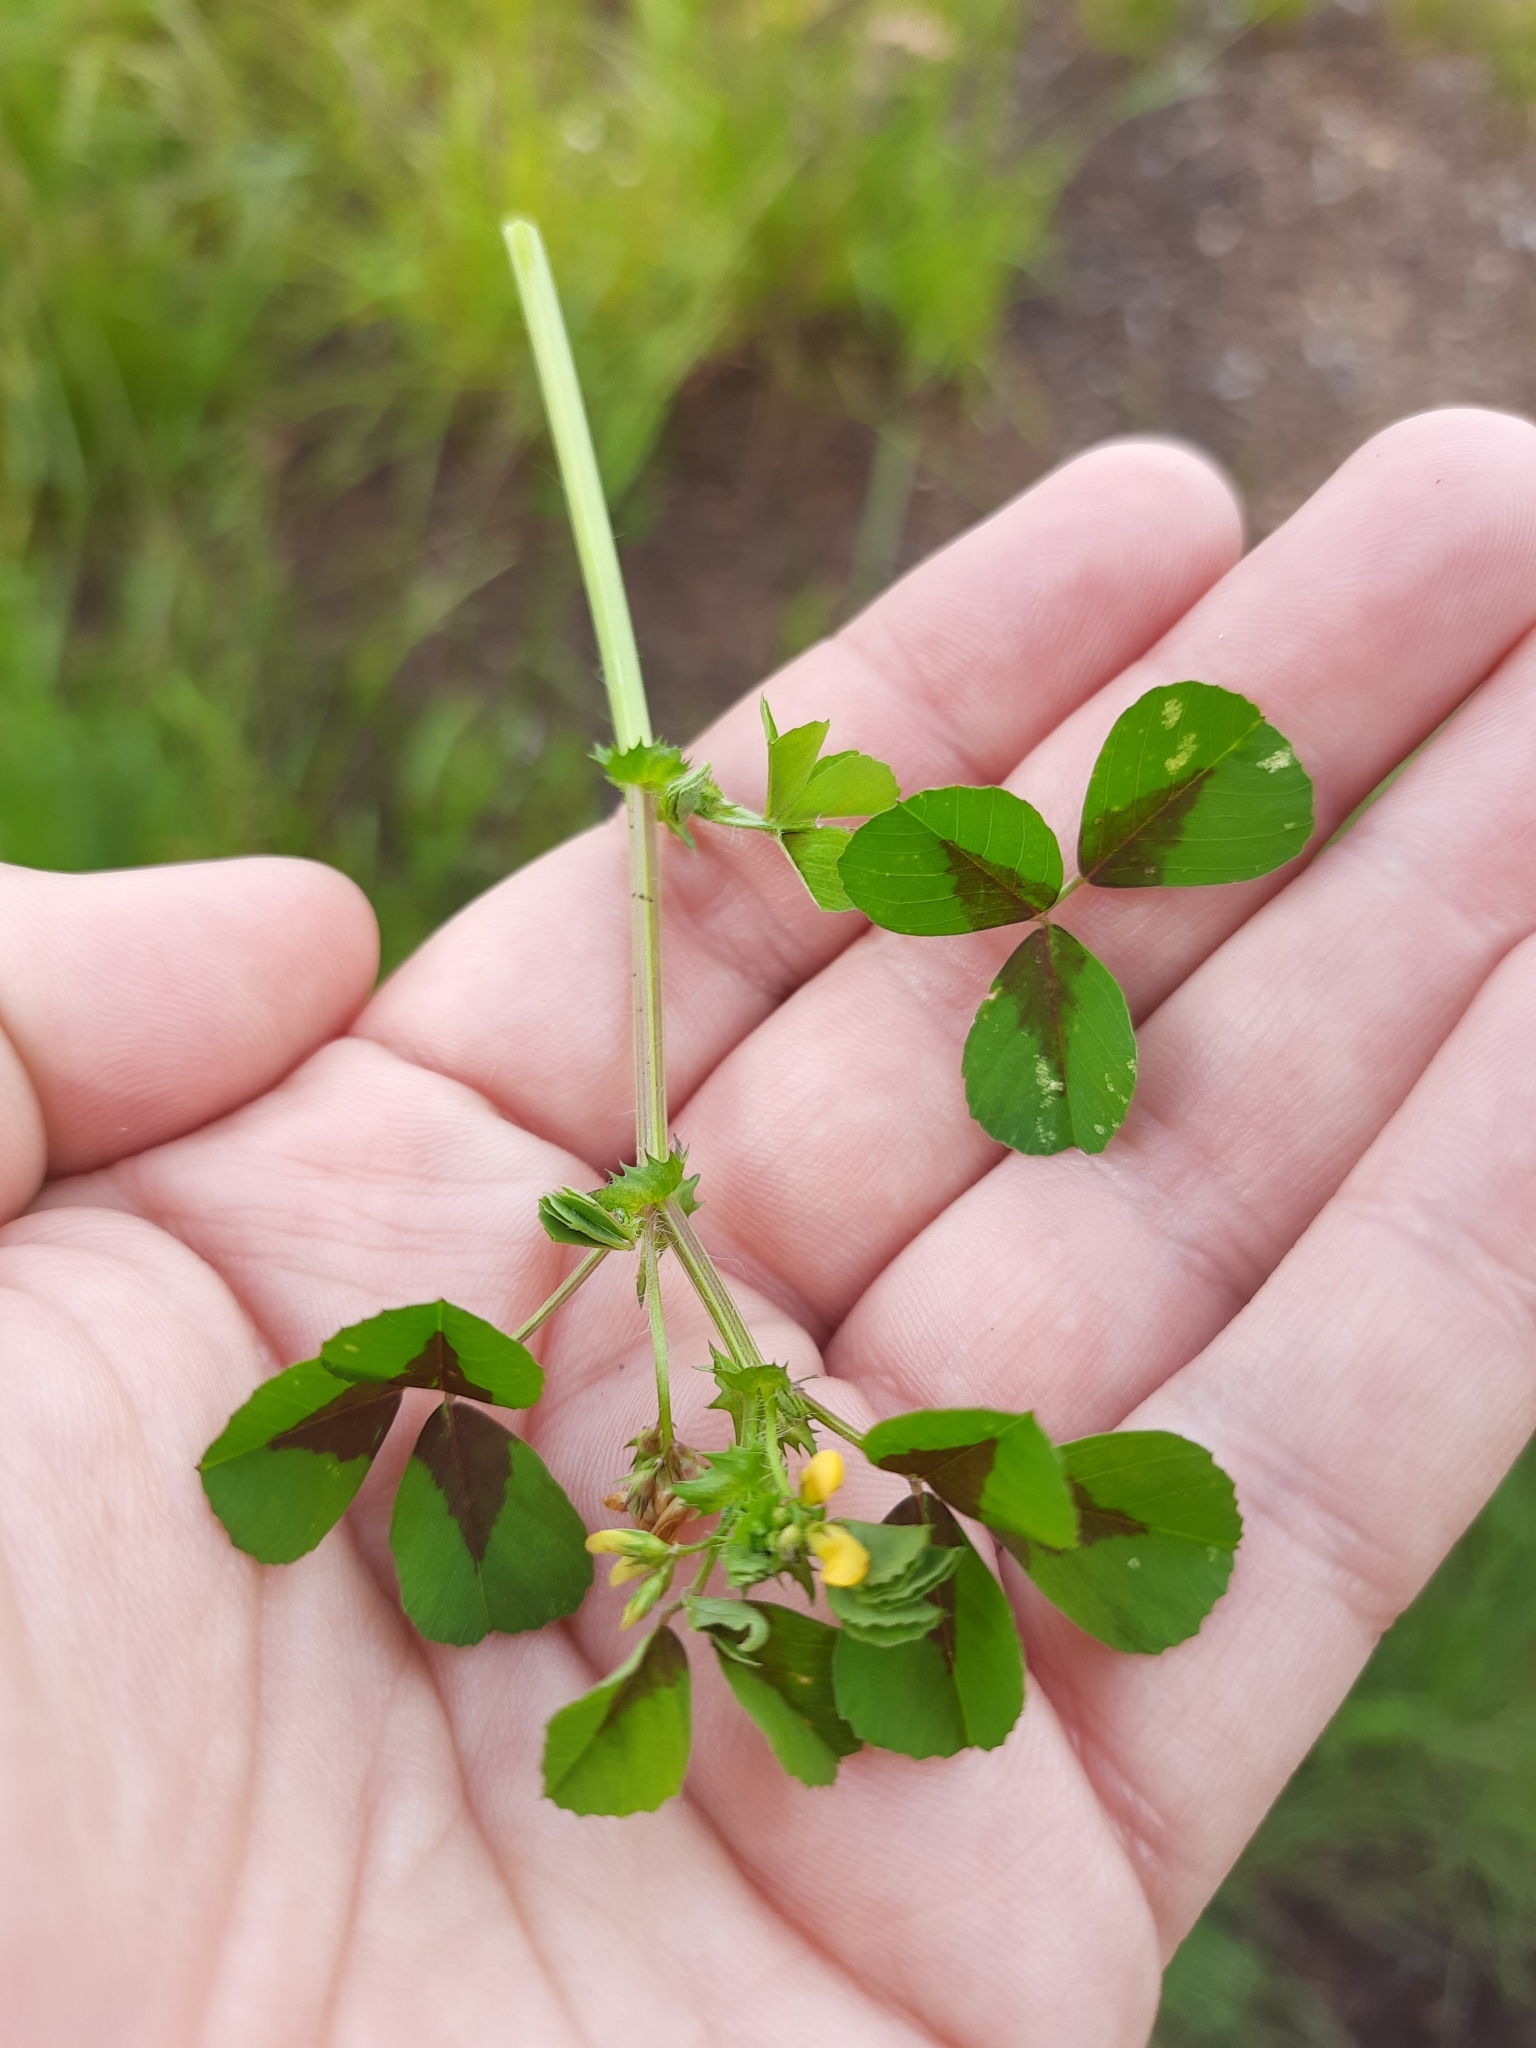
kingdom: Plantae
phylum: Tracheophyta
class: Magnoliopsida
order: Fabales
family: Fabaceae
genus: Medicago
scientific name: Medicago arabica
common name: Spotted medick
